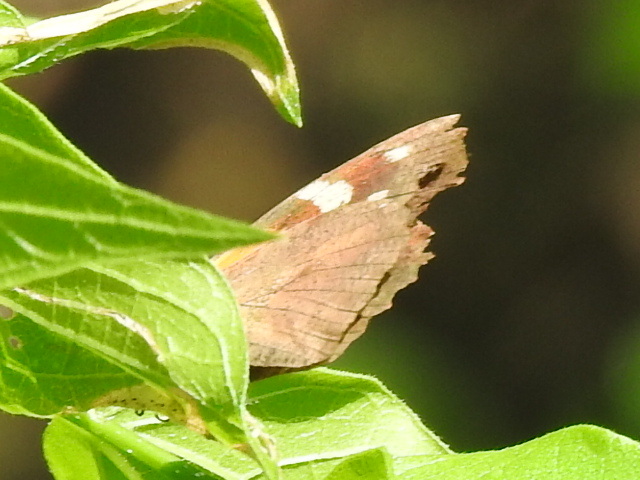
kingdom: Animalia
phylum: Arthropoda
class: Insecta
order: Lepidoptera
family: Nymphalidae
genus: Libytheana
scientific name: Libytheana carinenta
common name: American snout
